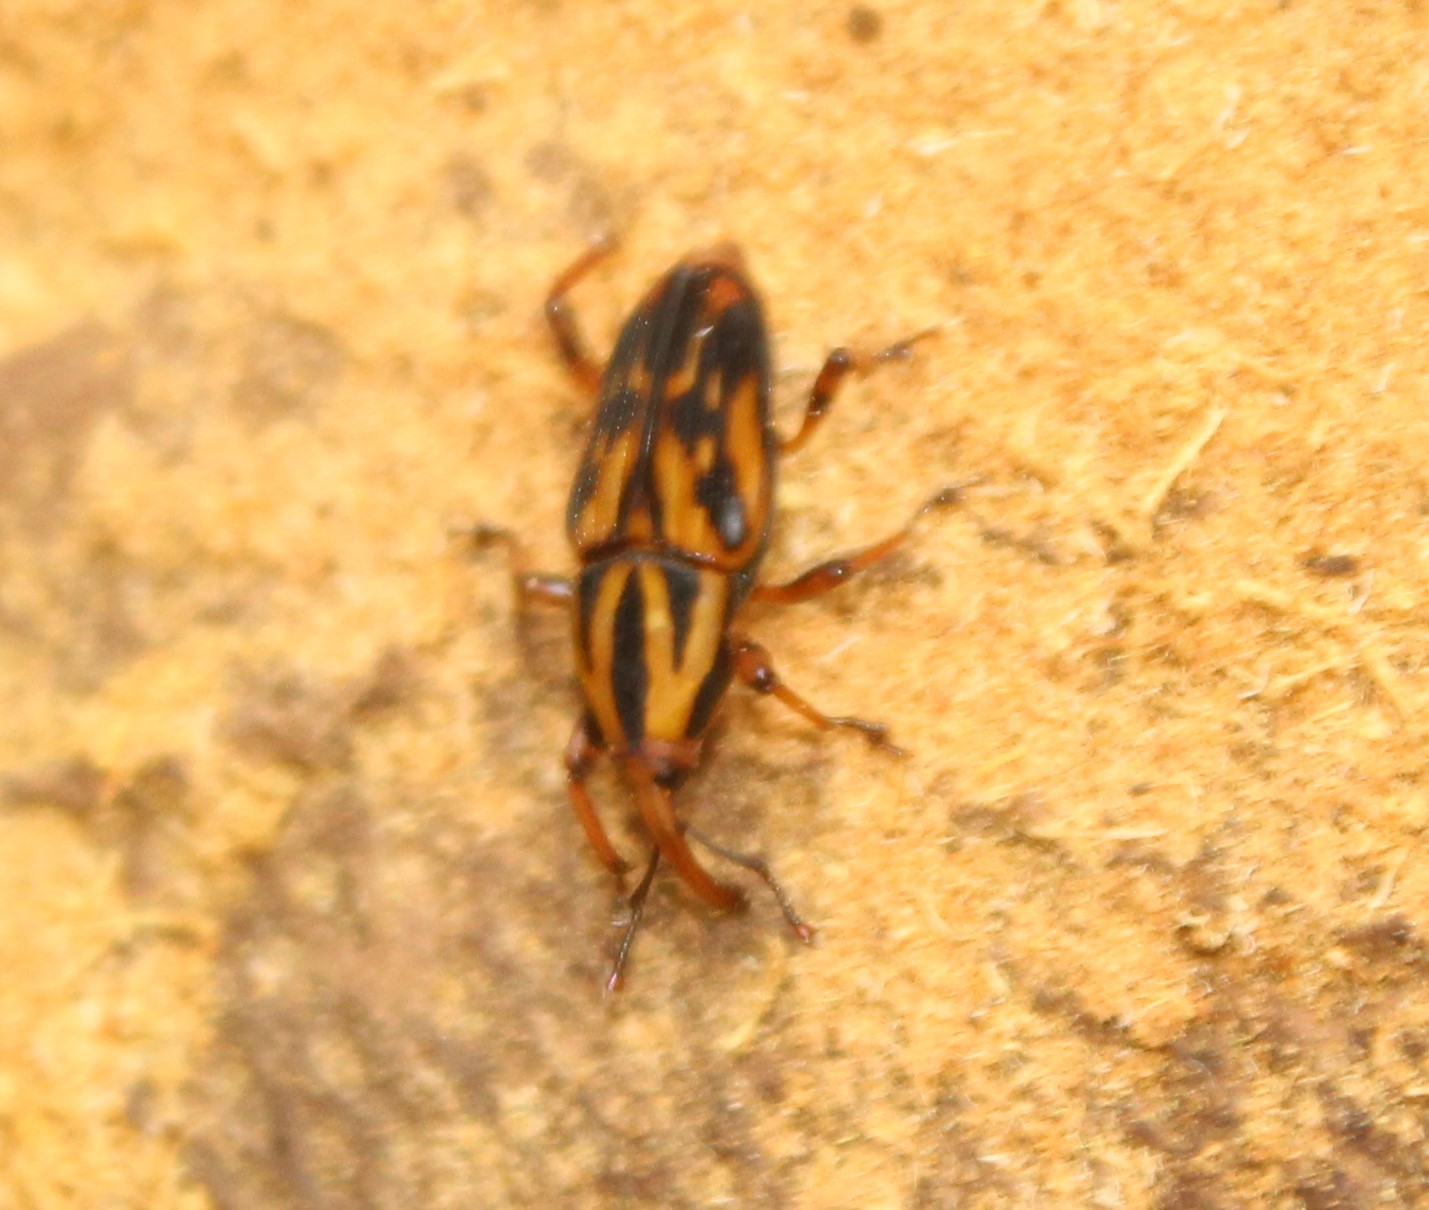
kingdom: Animalia
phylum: Arthropoda
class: Insecta
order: Coleoptera
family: Dryophthoridae
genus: Metamasius
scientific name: Metamasius hemipterus
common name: Weevil
